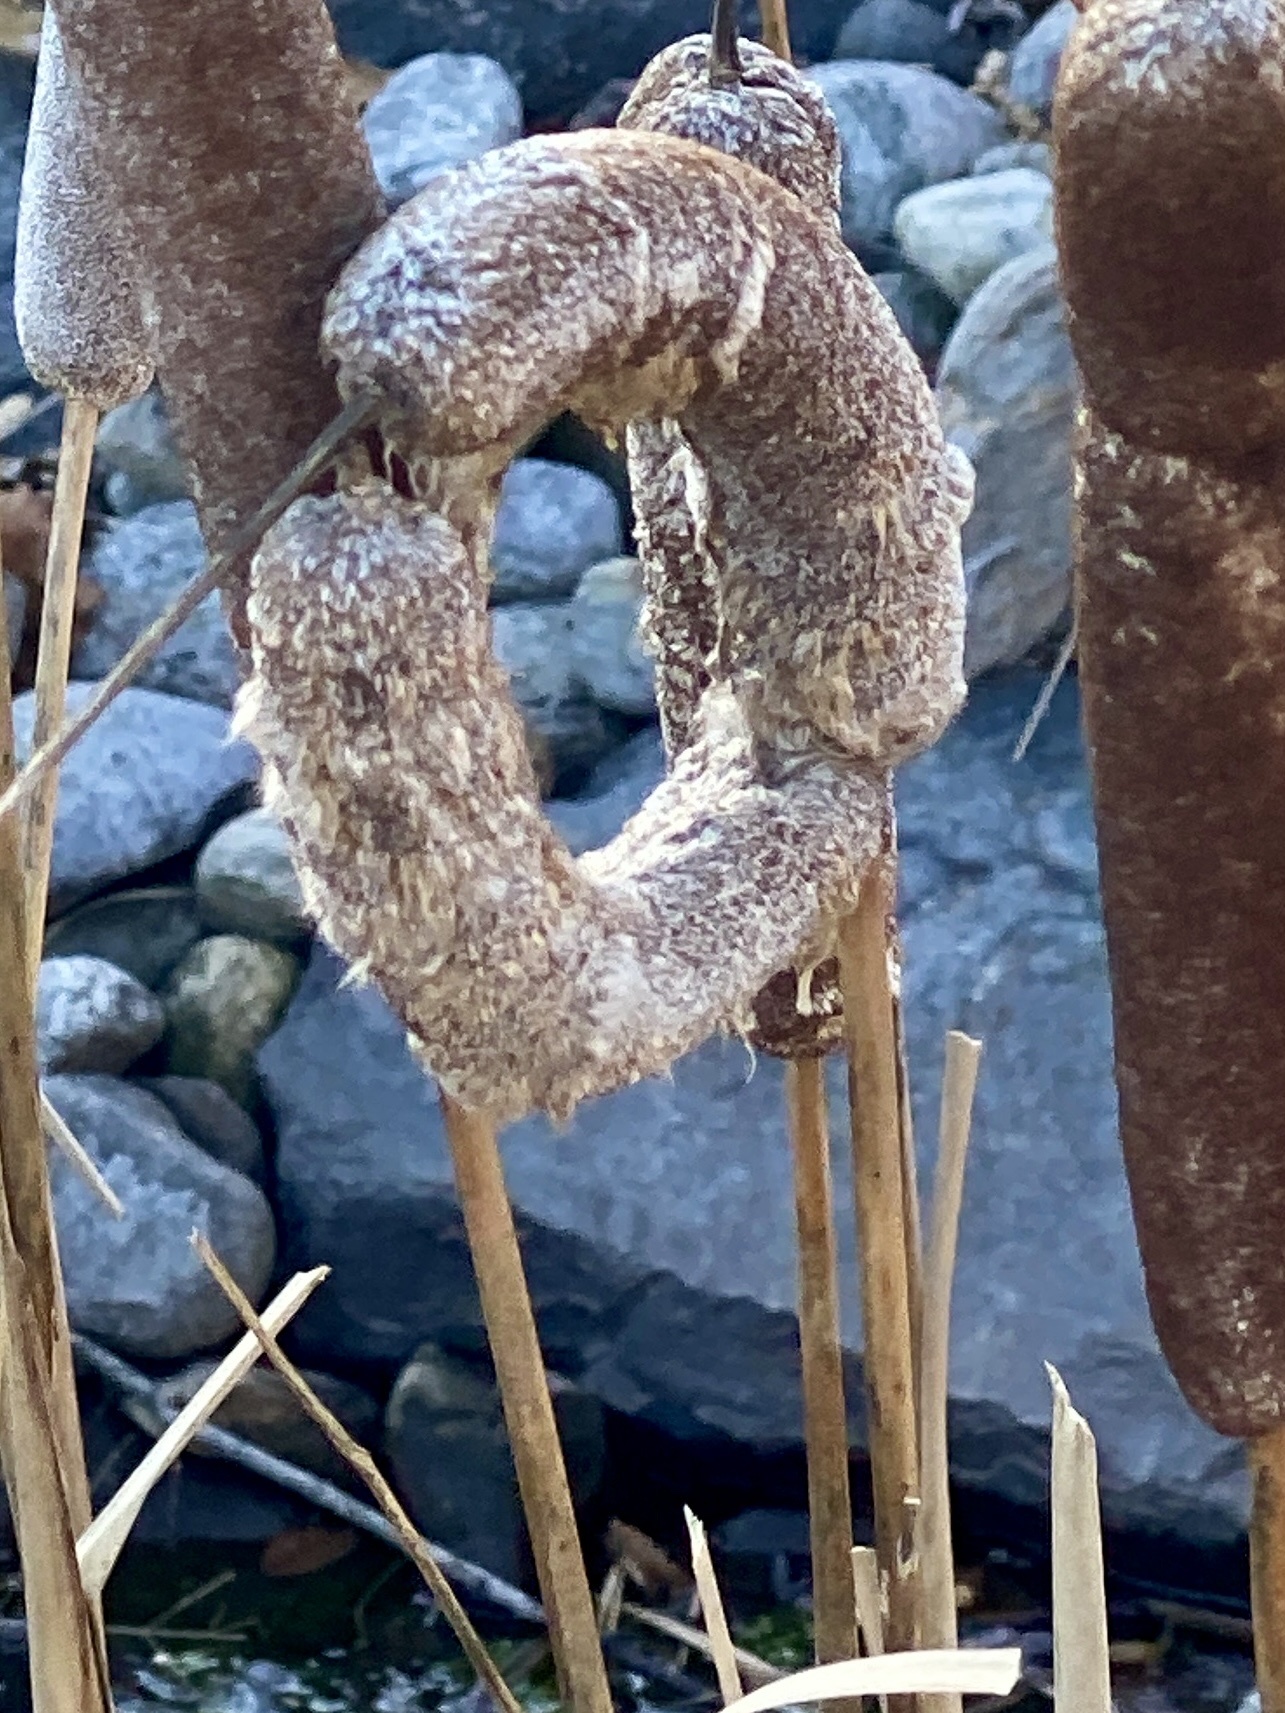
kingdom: Plantae
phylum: Tracheophyta
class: Liliopsida
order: Poales
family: Typhaceae
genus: Typha
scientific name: Typha
